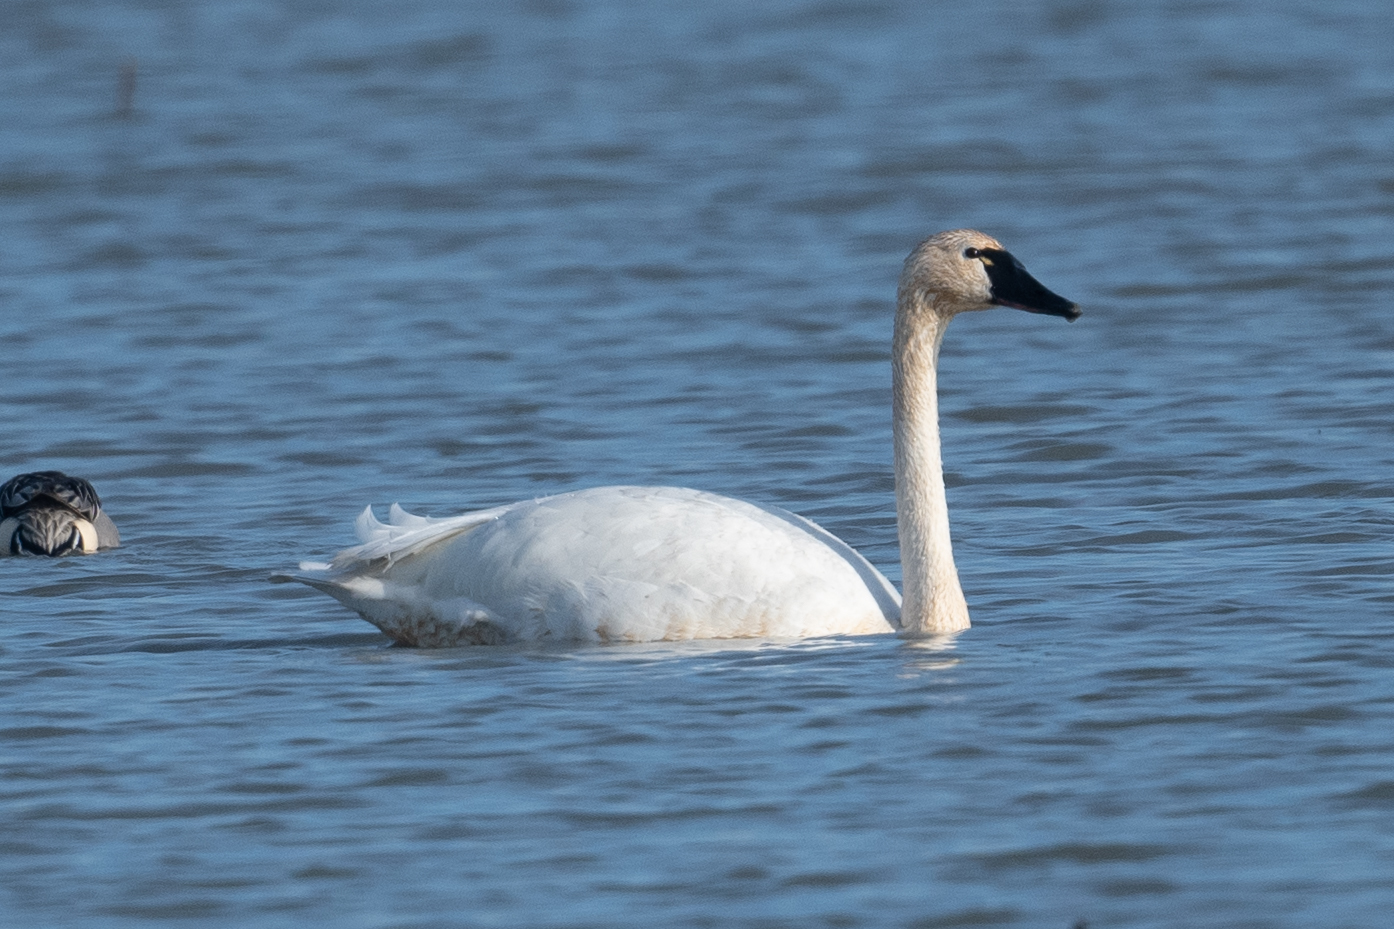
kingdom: Animalia
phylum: Chordata
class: Aves
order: Anseriformes
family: Anatidae
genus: Cygnus
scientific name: Cygnus columbianus
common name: Tundra swan
